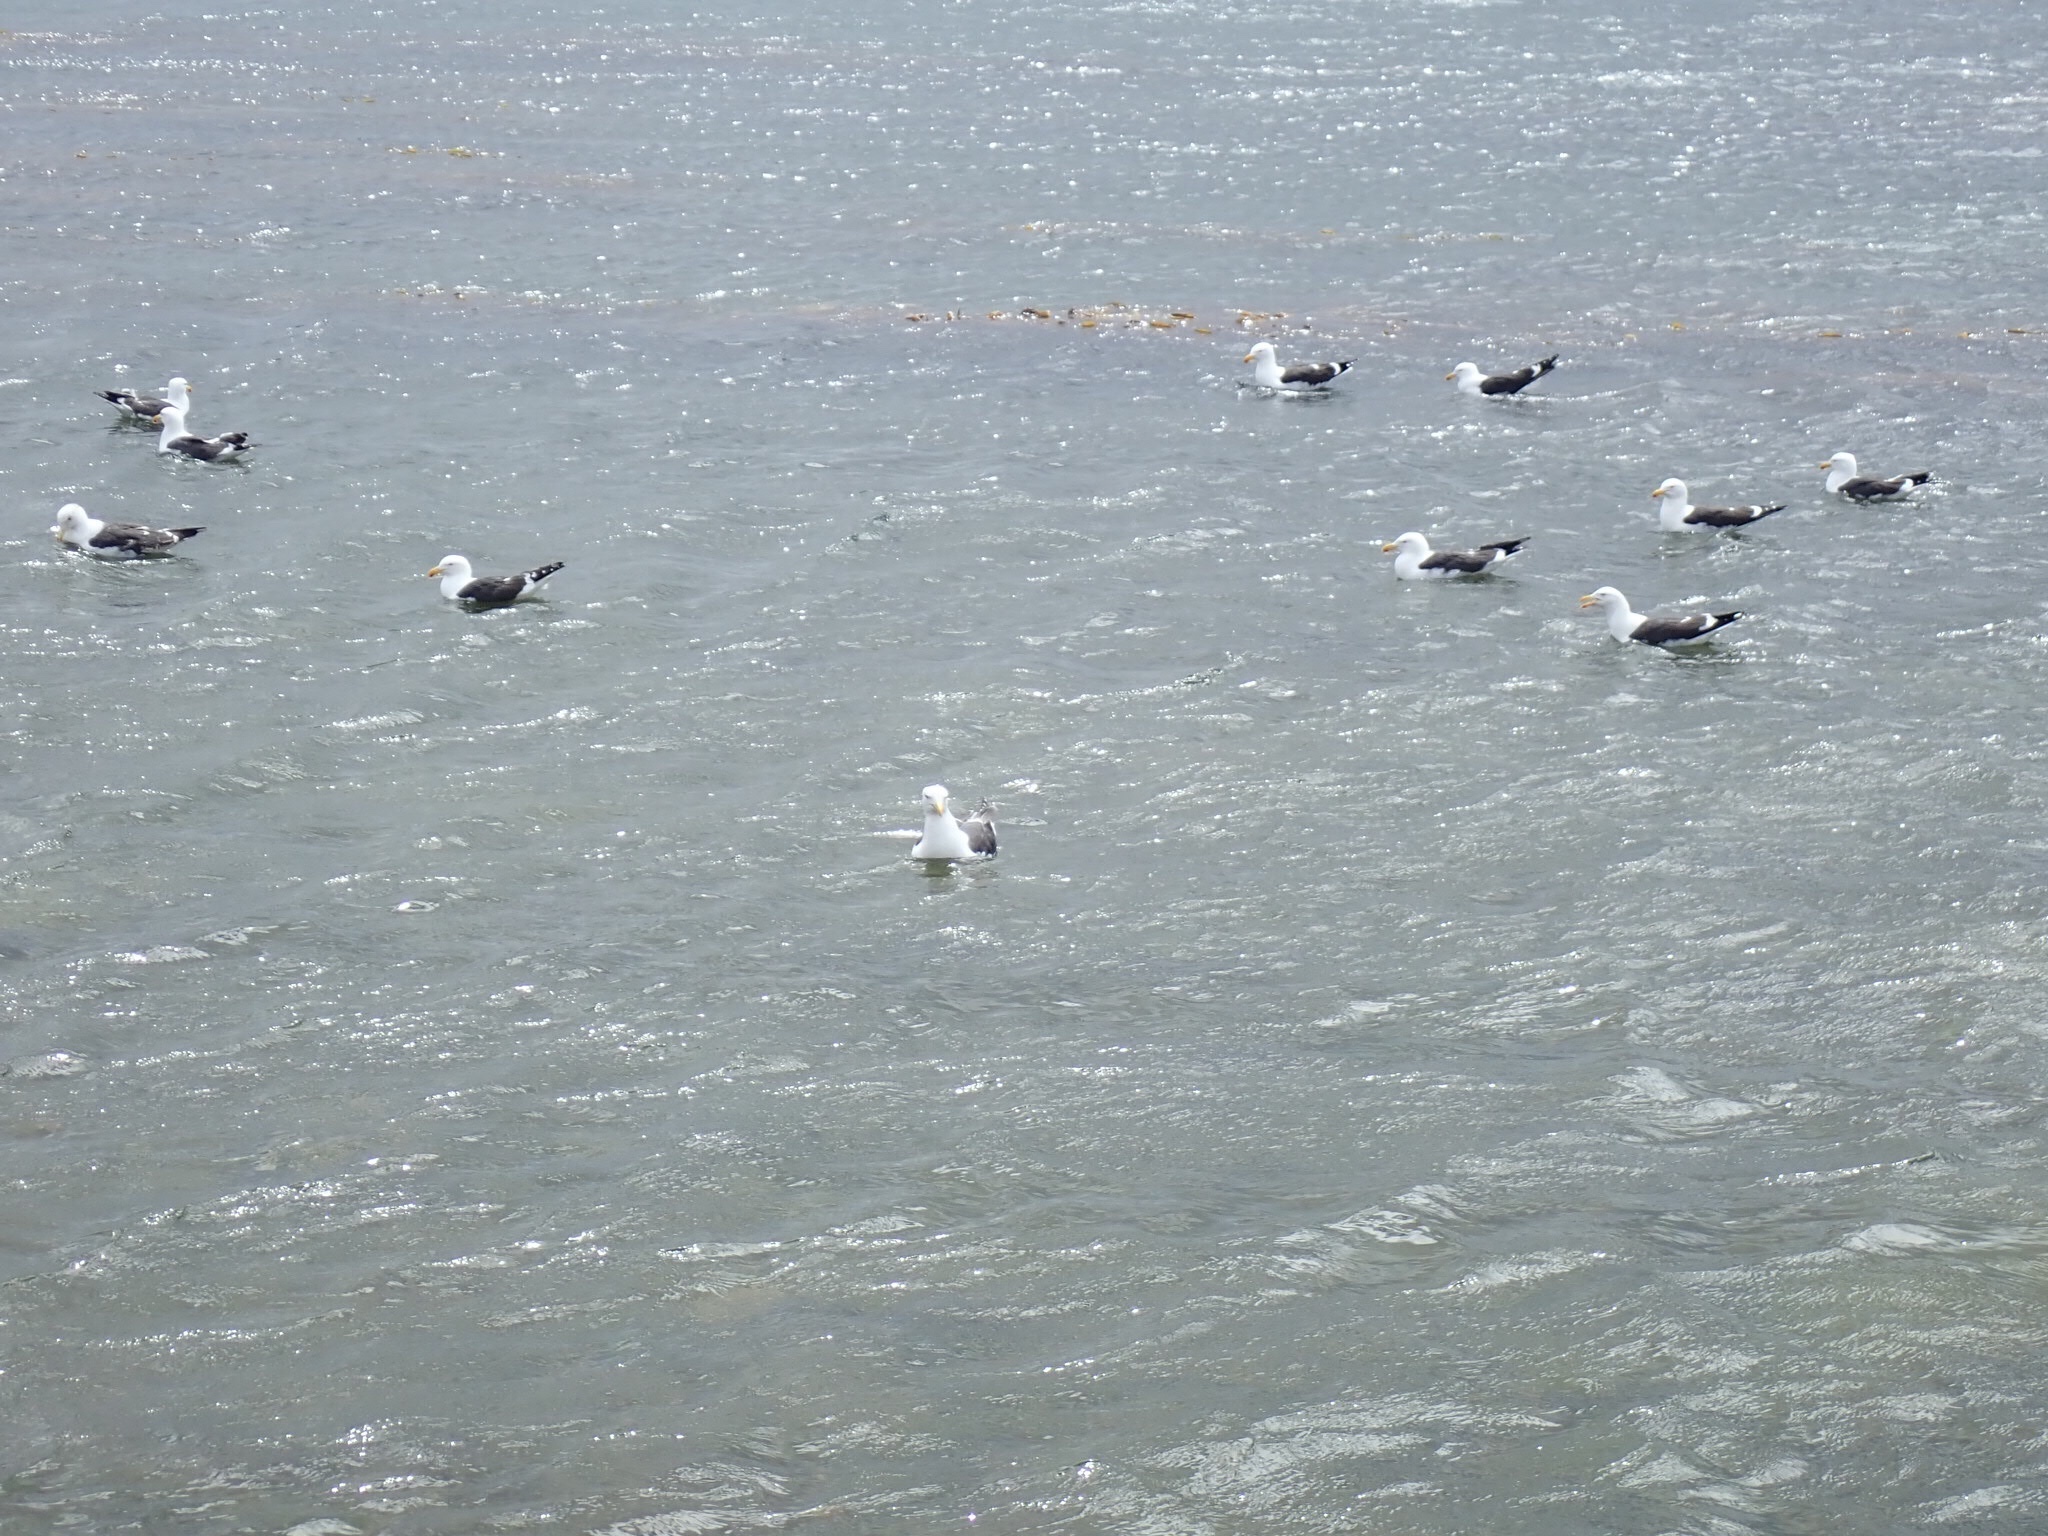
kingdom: Animalia
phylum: Chordata
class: Aves
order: Charadriiformes
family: Laridae
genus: Larus
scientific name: Larus dominicanus
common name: Kelp gull
